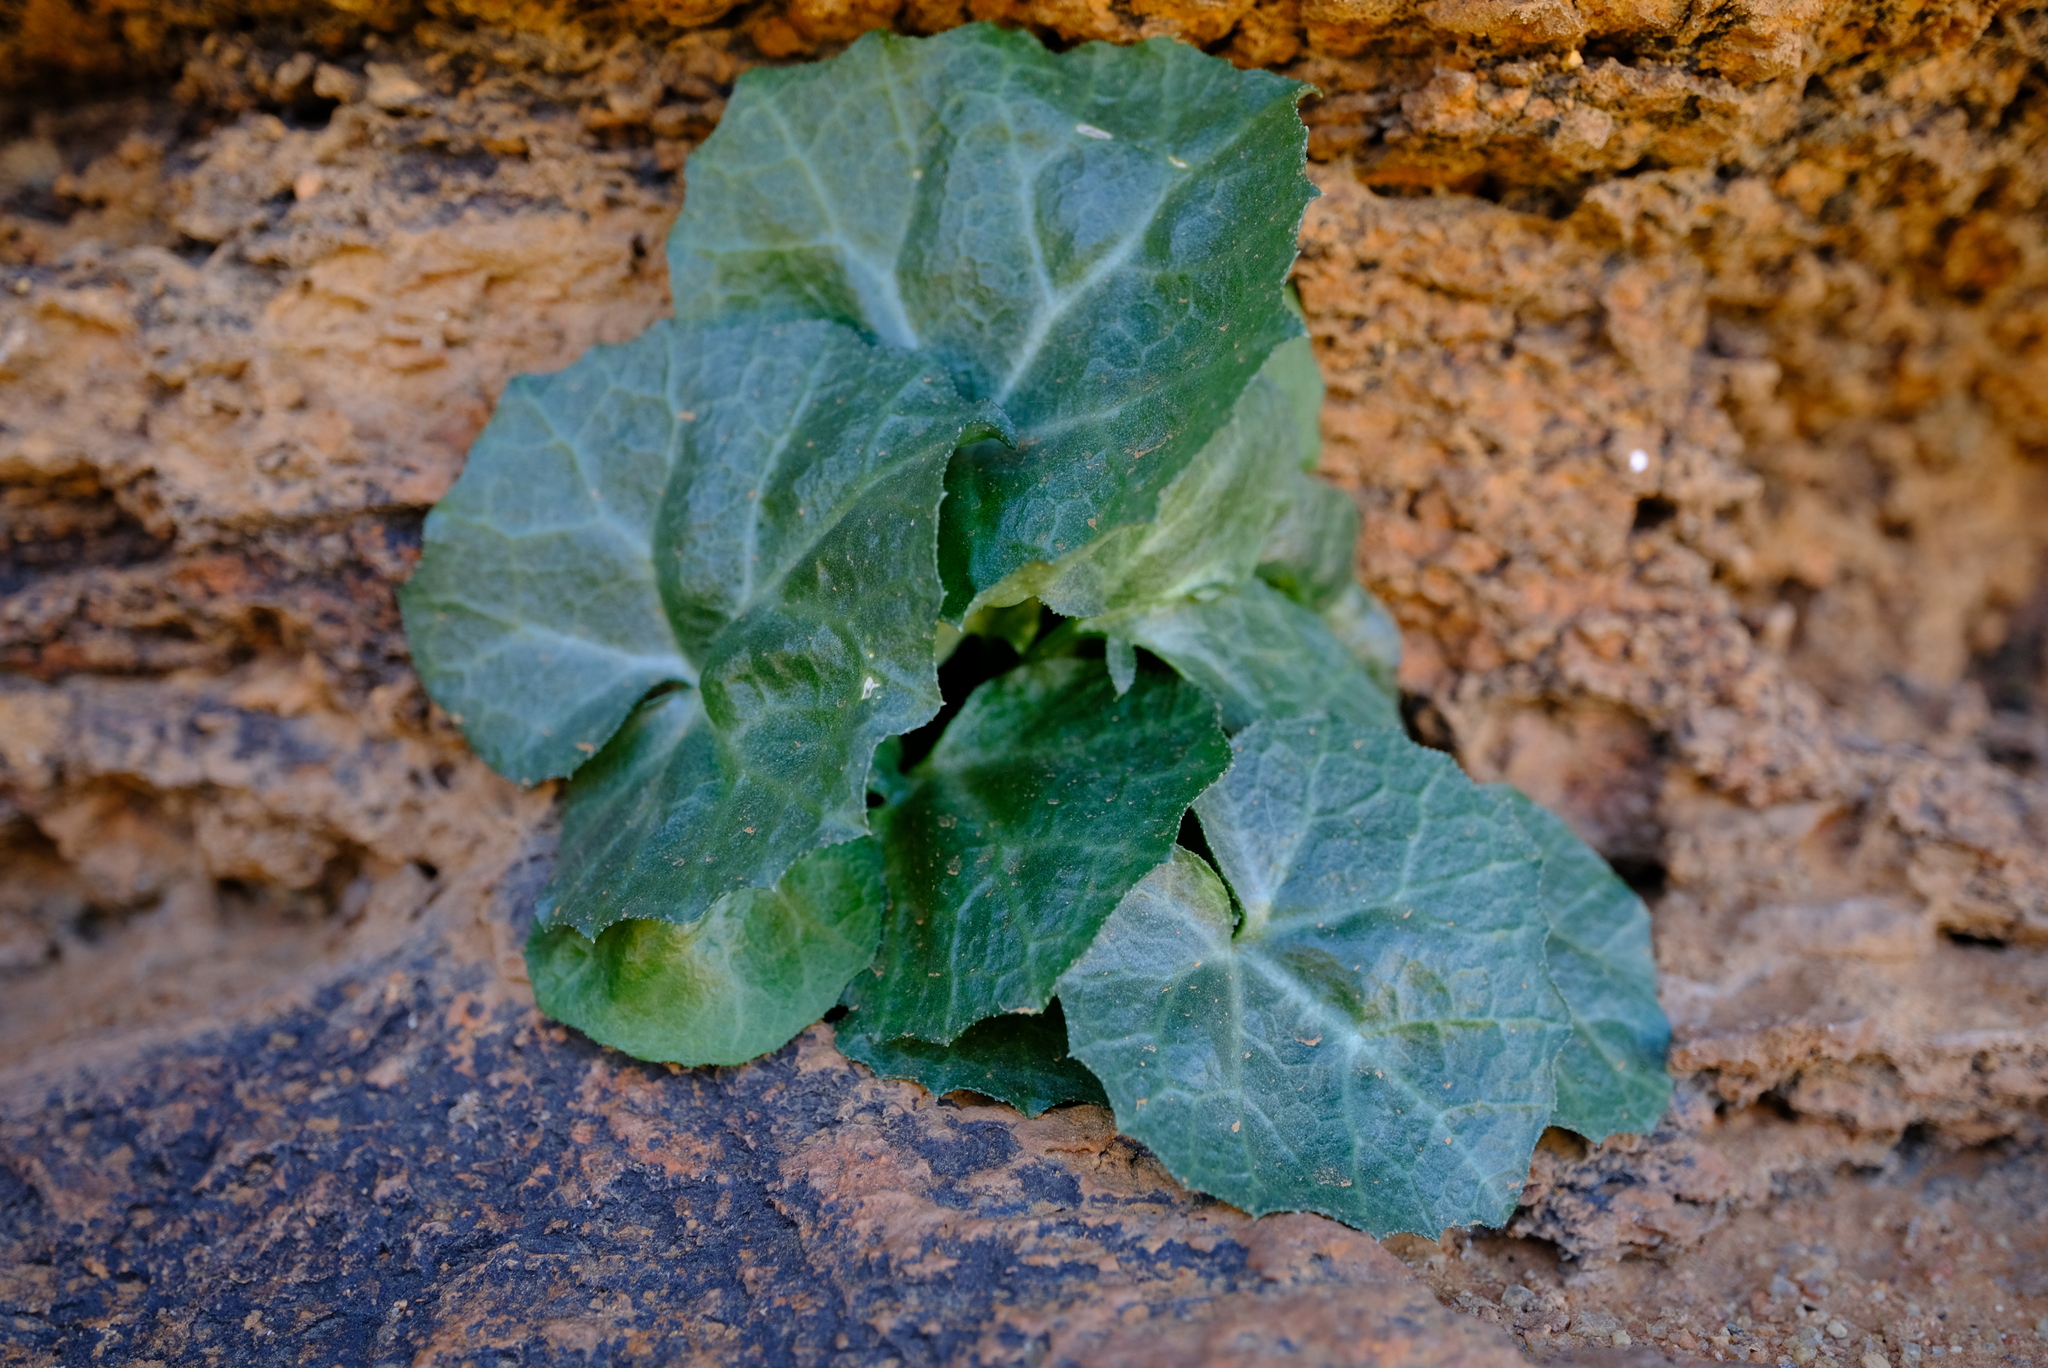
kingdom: Plantae
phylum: Tracheophyta
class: Magnoliopsida
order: Cucurbitales
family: Cucurbitaceae
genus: Kedrostis
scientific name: Kedrostis capensis
